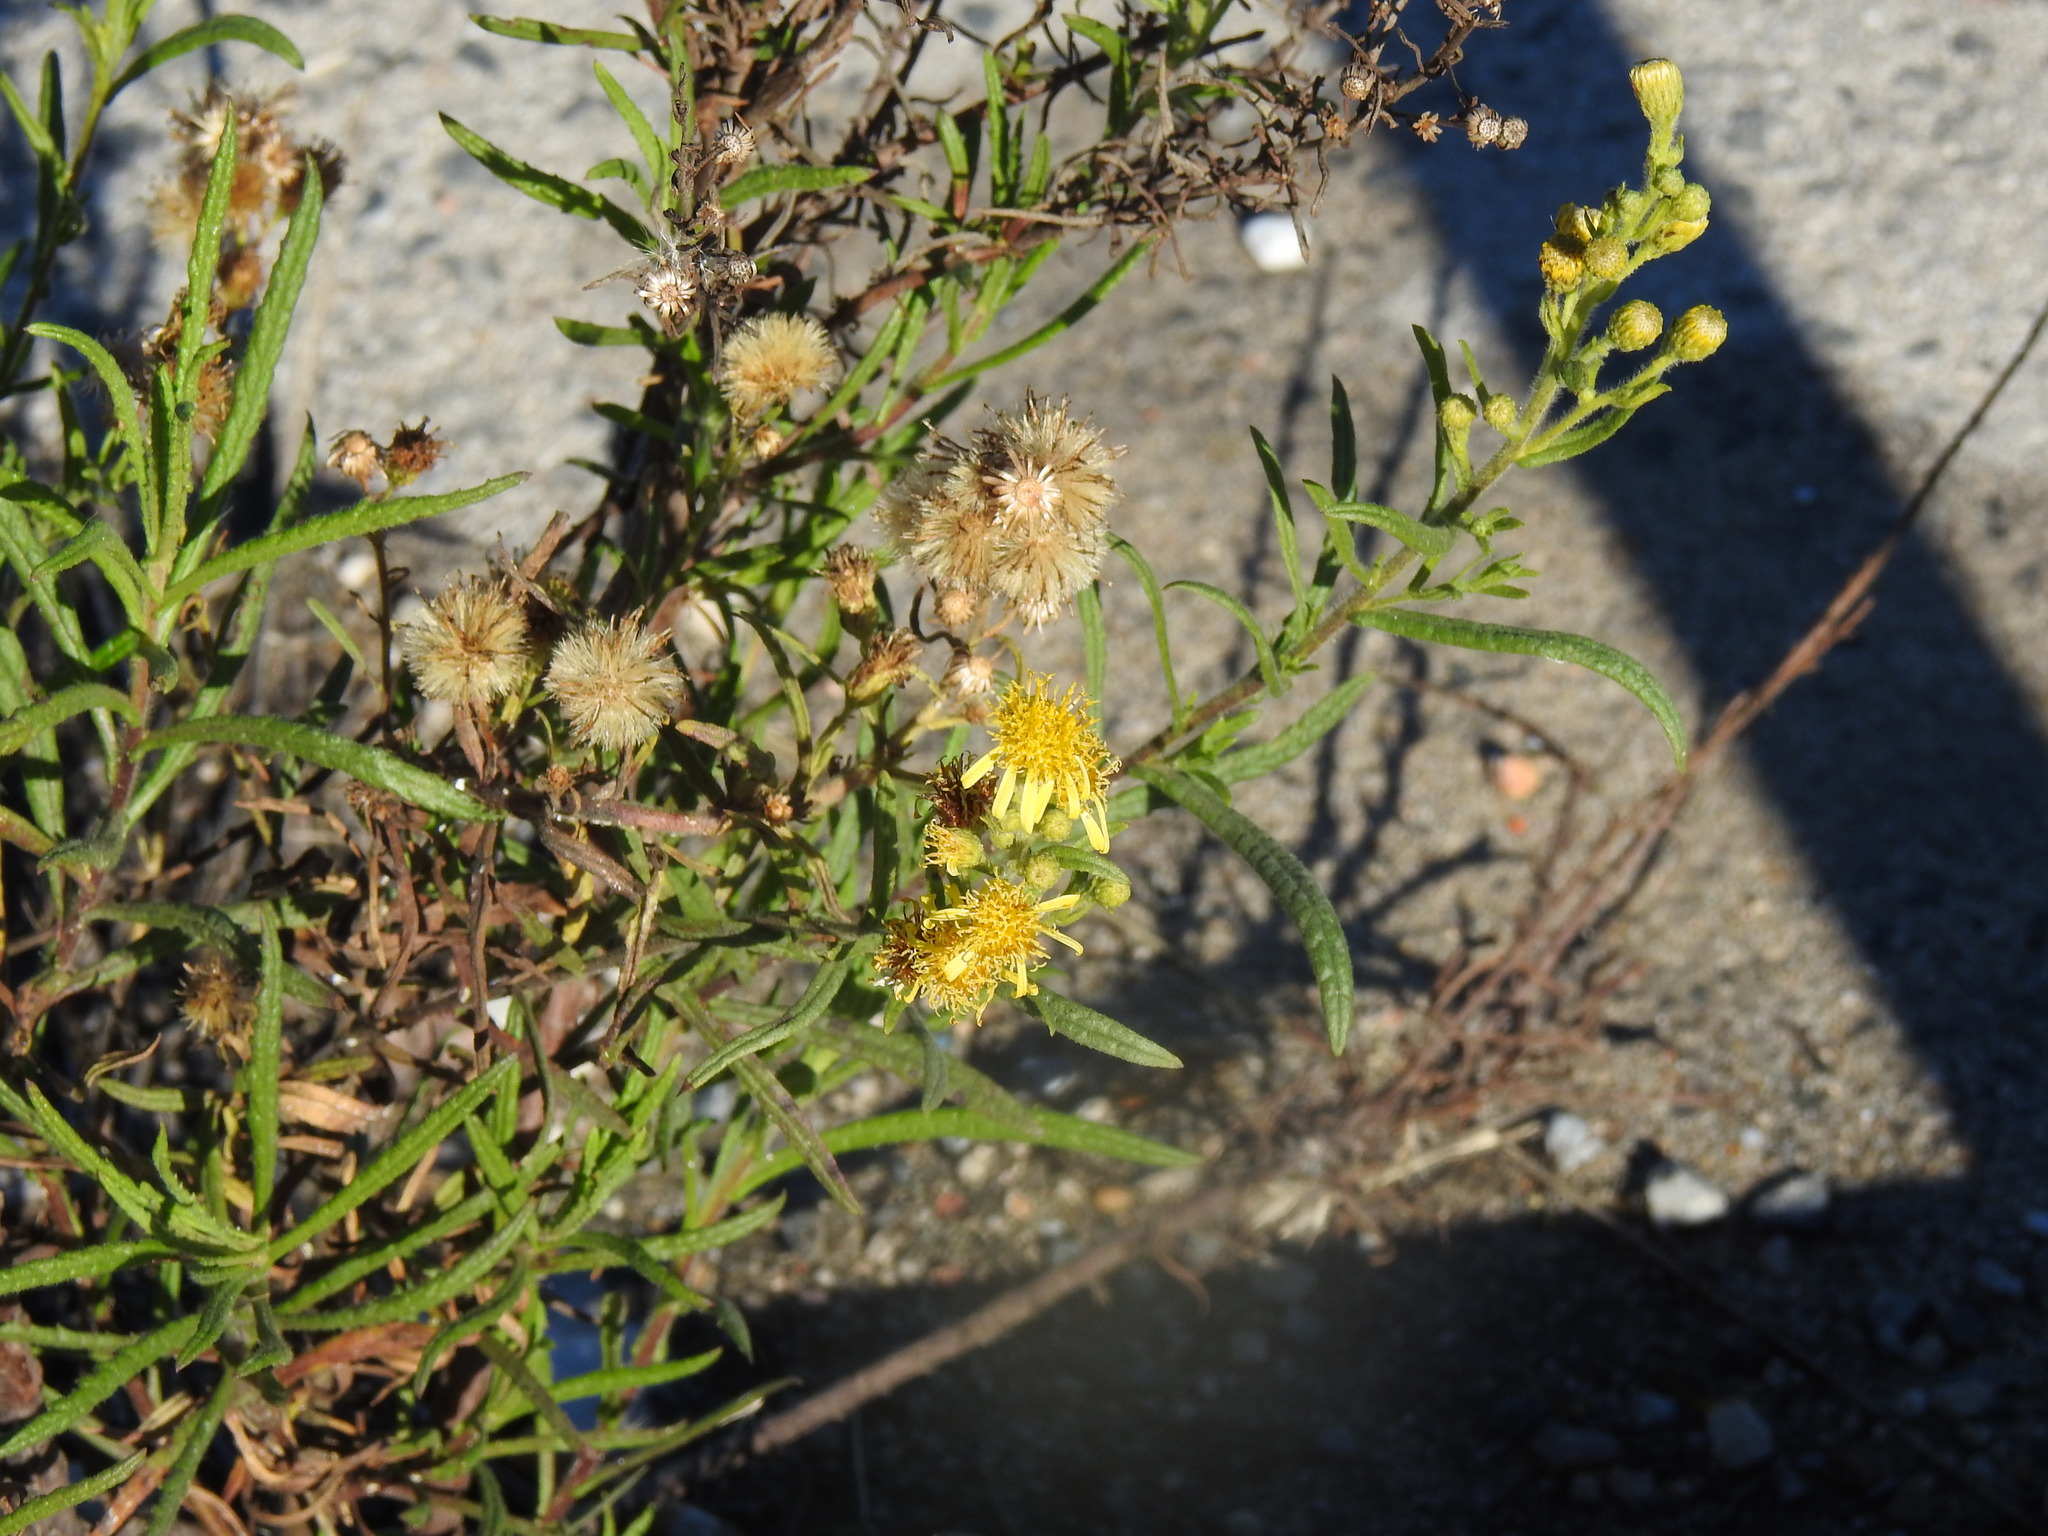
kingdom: Plantae
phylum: Tracheophyta
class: Magnoliopsida
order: Asterales
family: Asteraceae
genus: Dittrichia
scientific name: Dittrichia viscosa
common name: Woody fleabane
